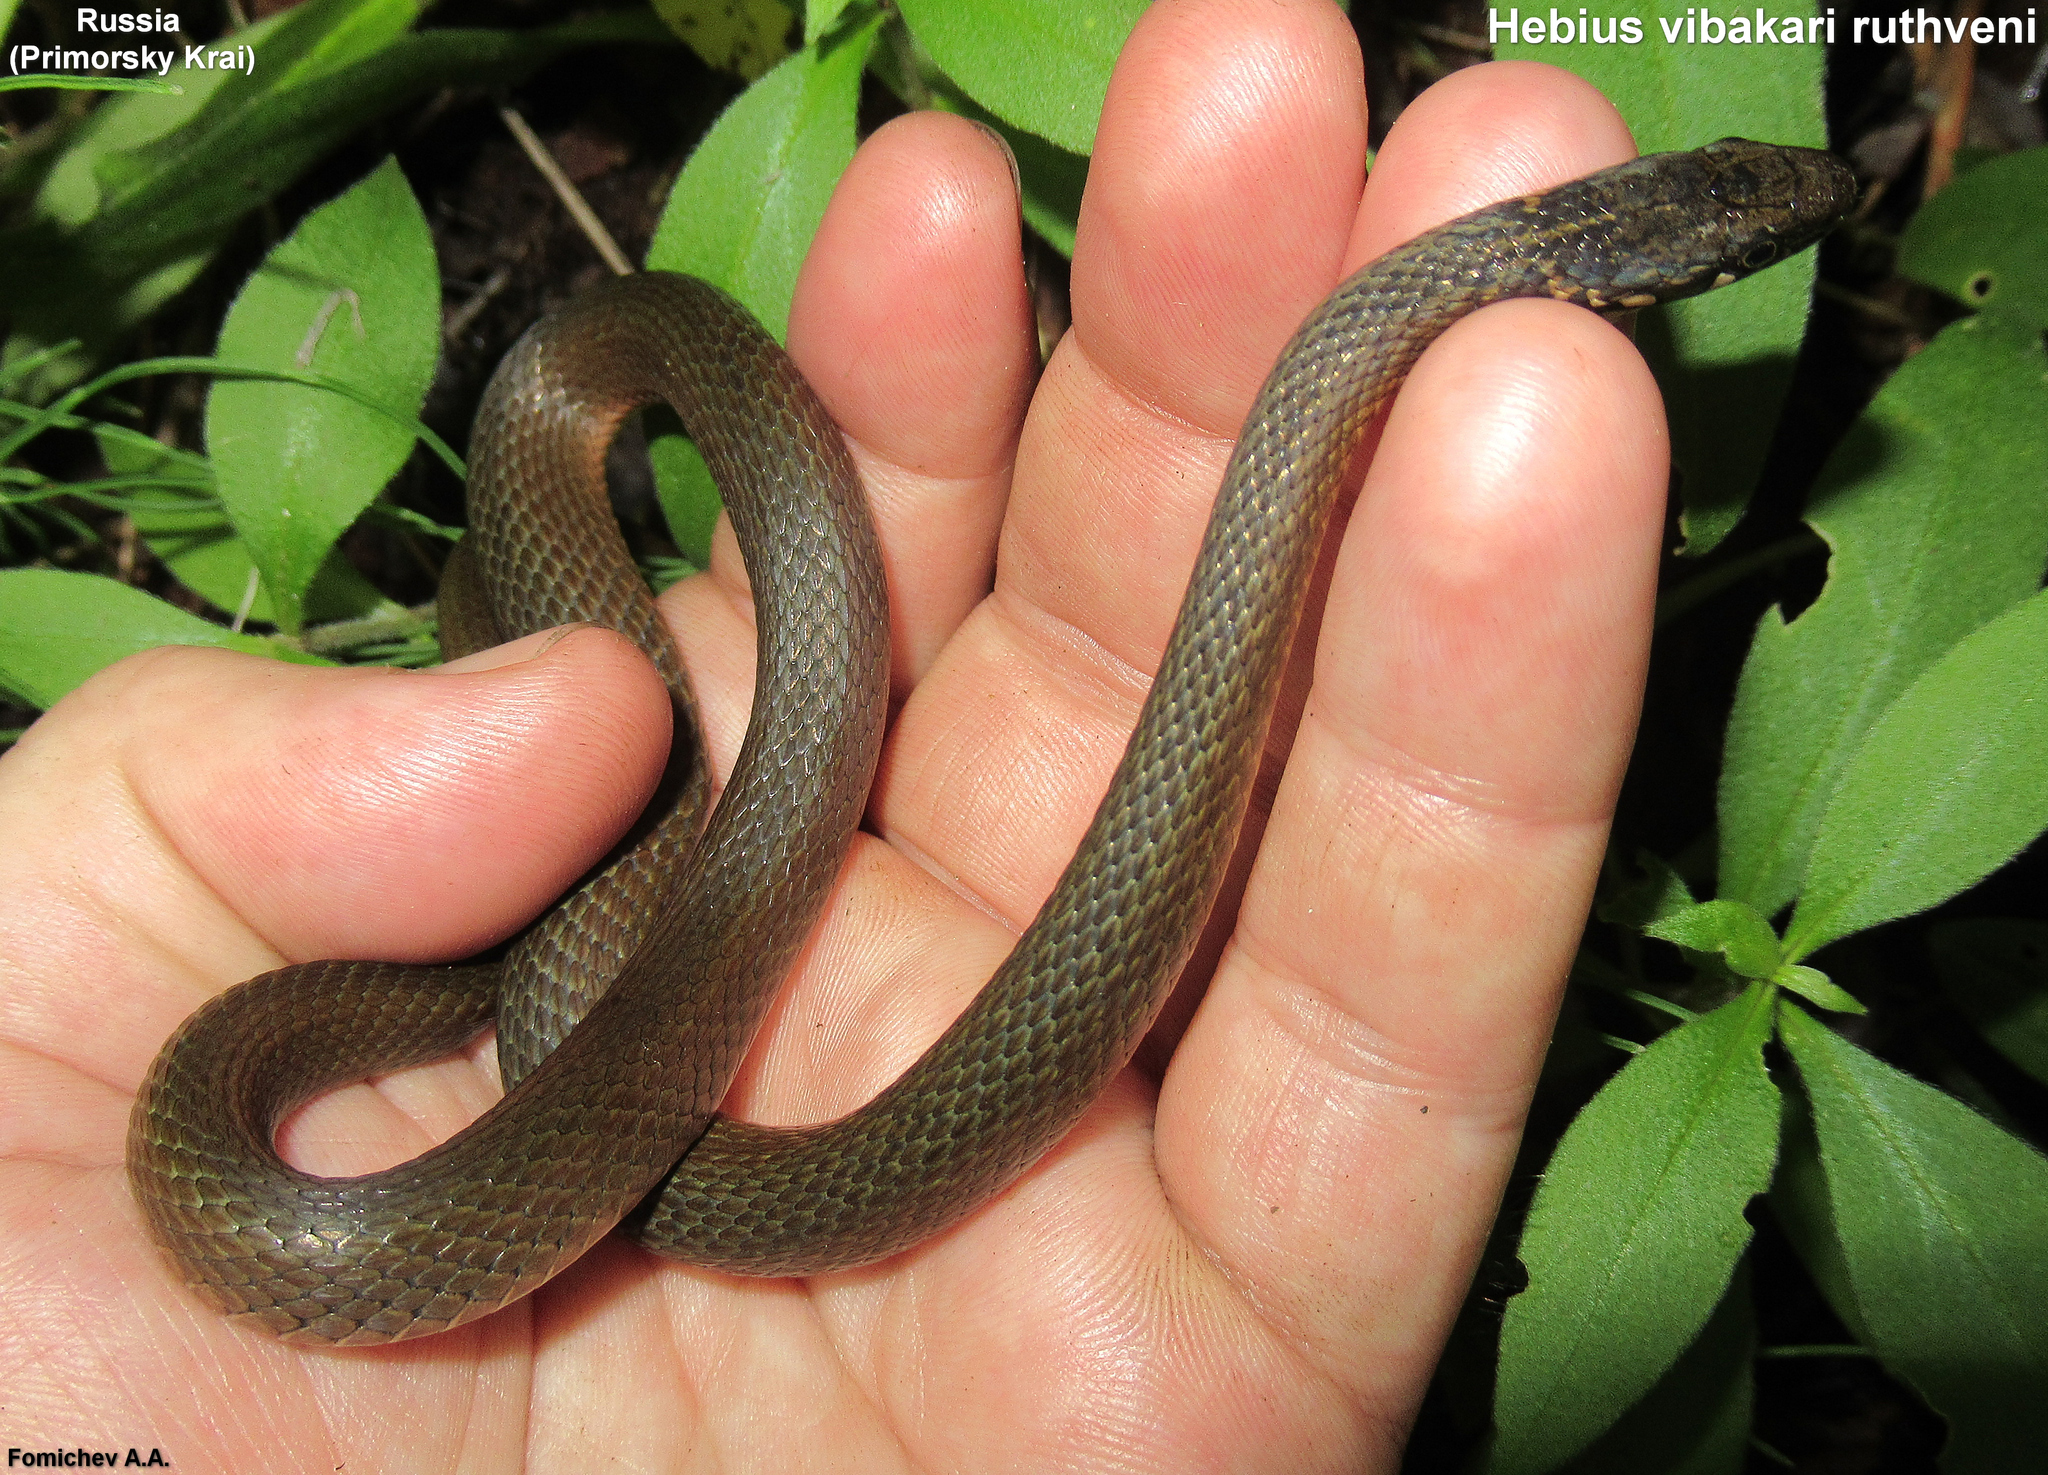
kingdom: Animalia
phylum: Chordata
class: Squamata
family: Colubridae
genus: Hebius
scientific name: Hebius vibakari
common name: Japanese keelback
